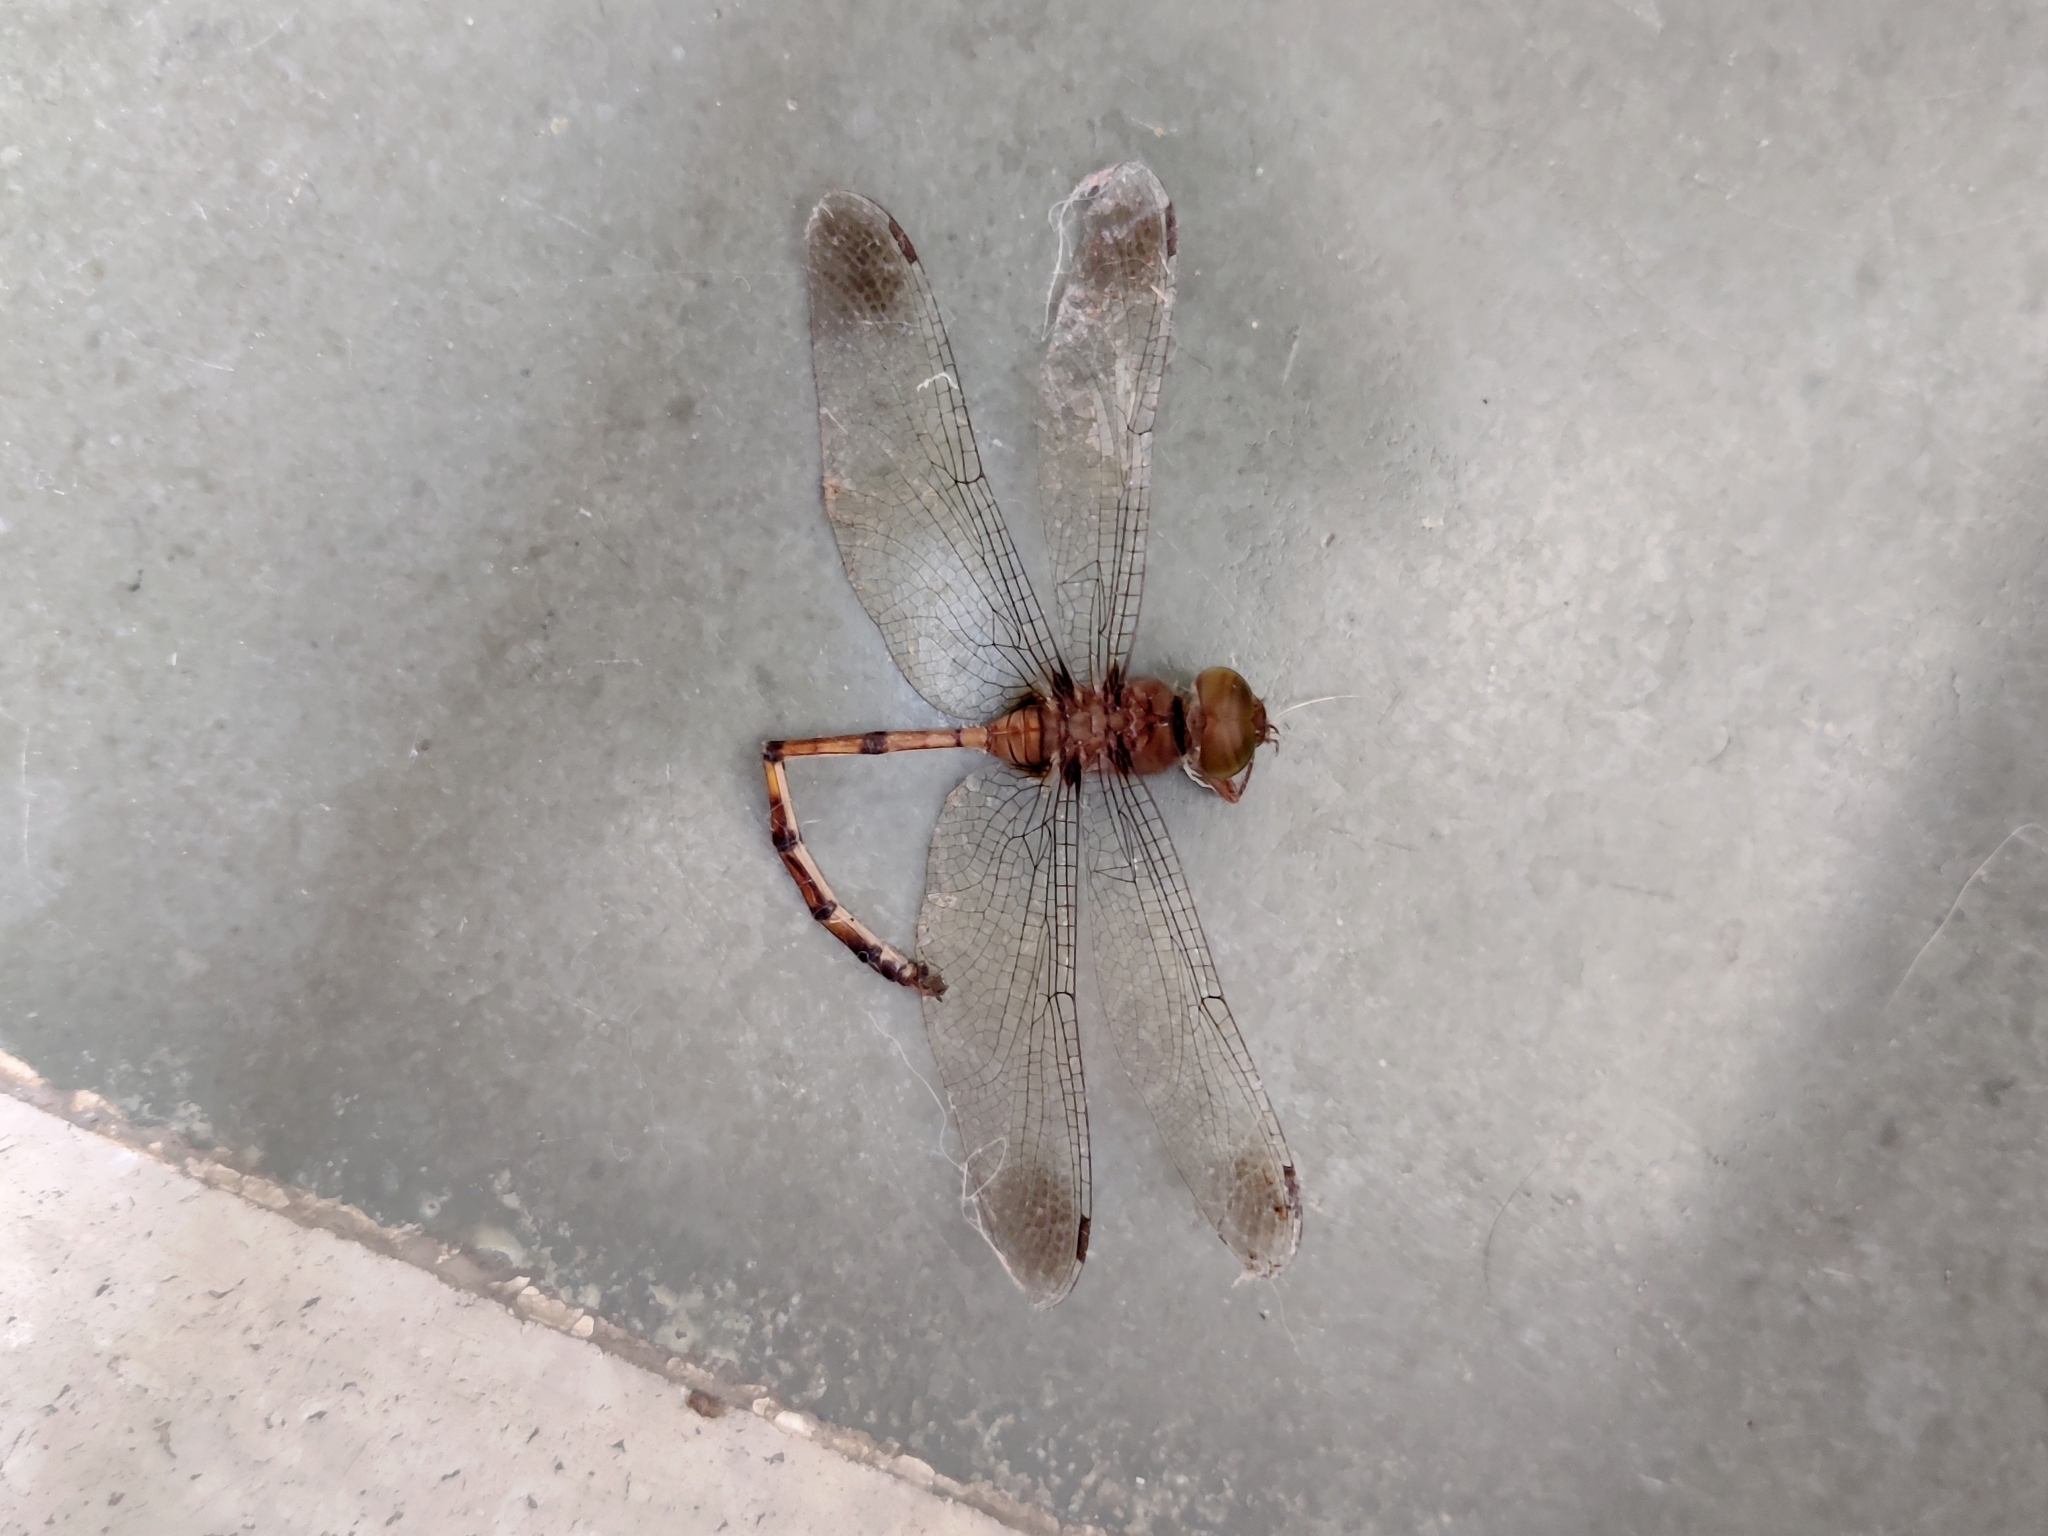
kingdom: Animalia
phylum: Arthropoda
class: Insecta
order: Odonata
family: Libellulidae
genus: Zyxomma
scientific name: Zyxomma petiolatum
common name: Dingy dusk-darter
